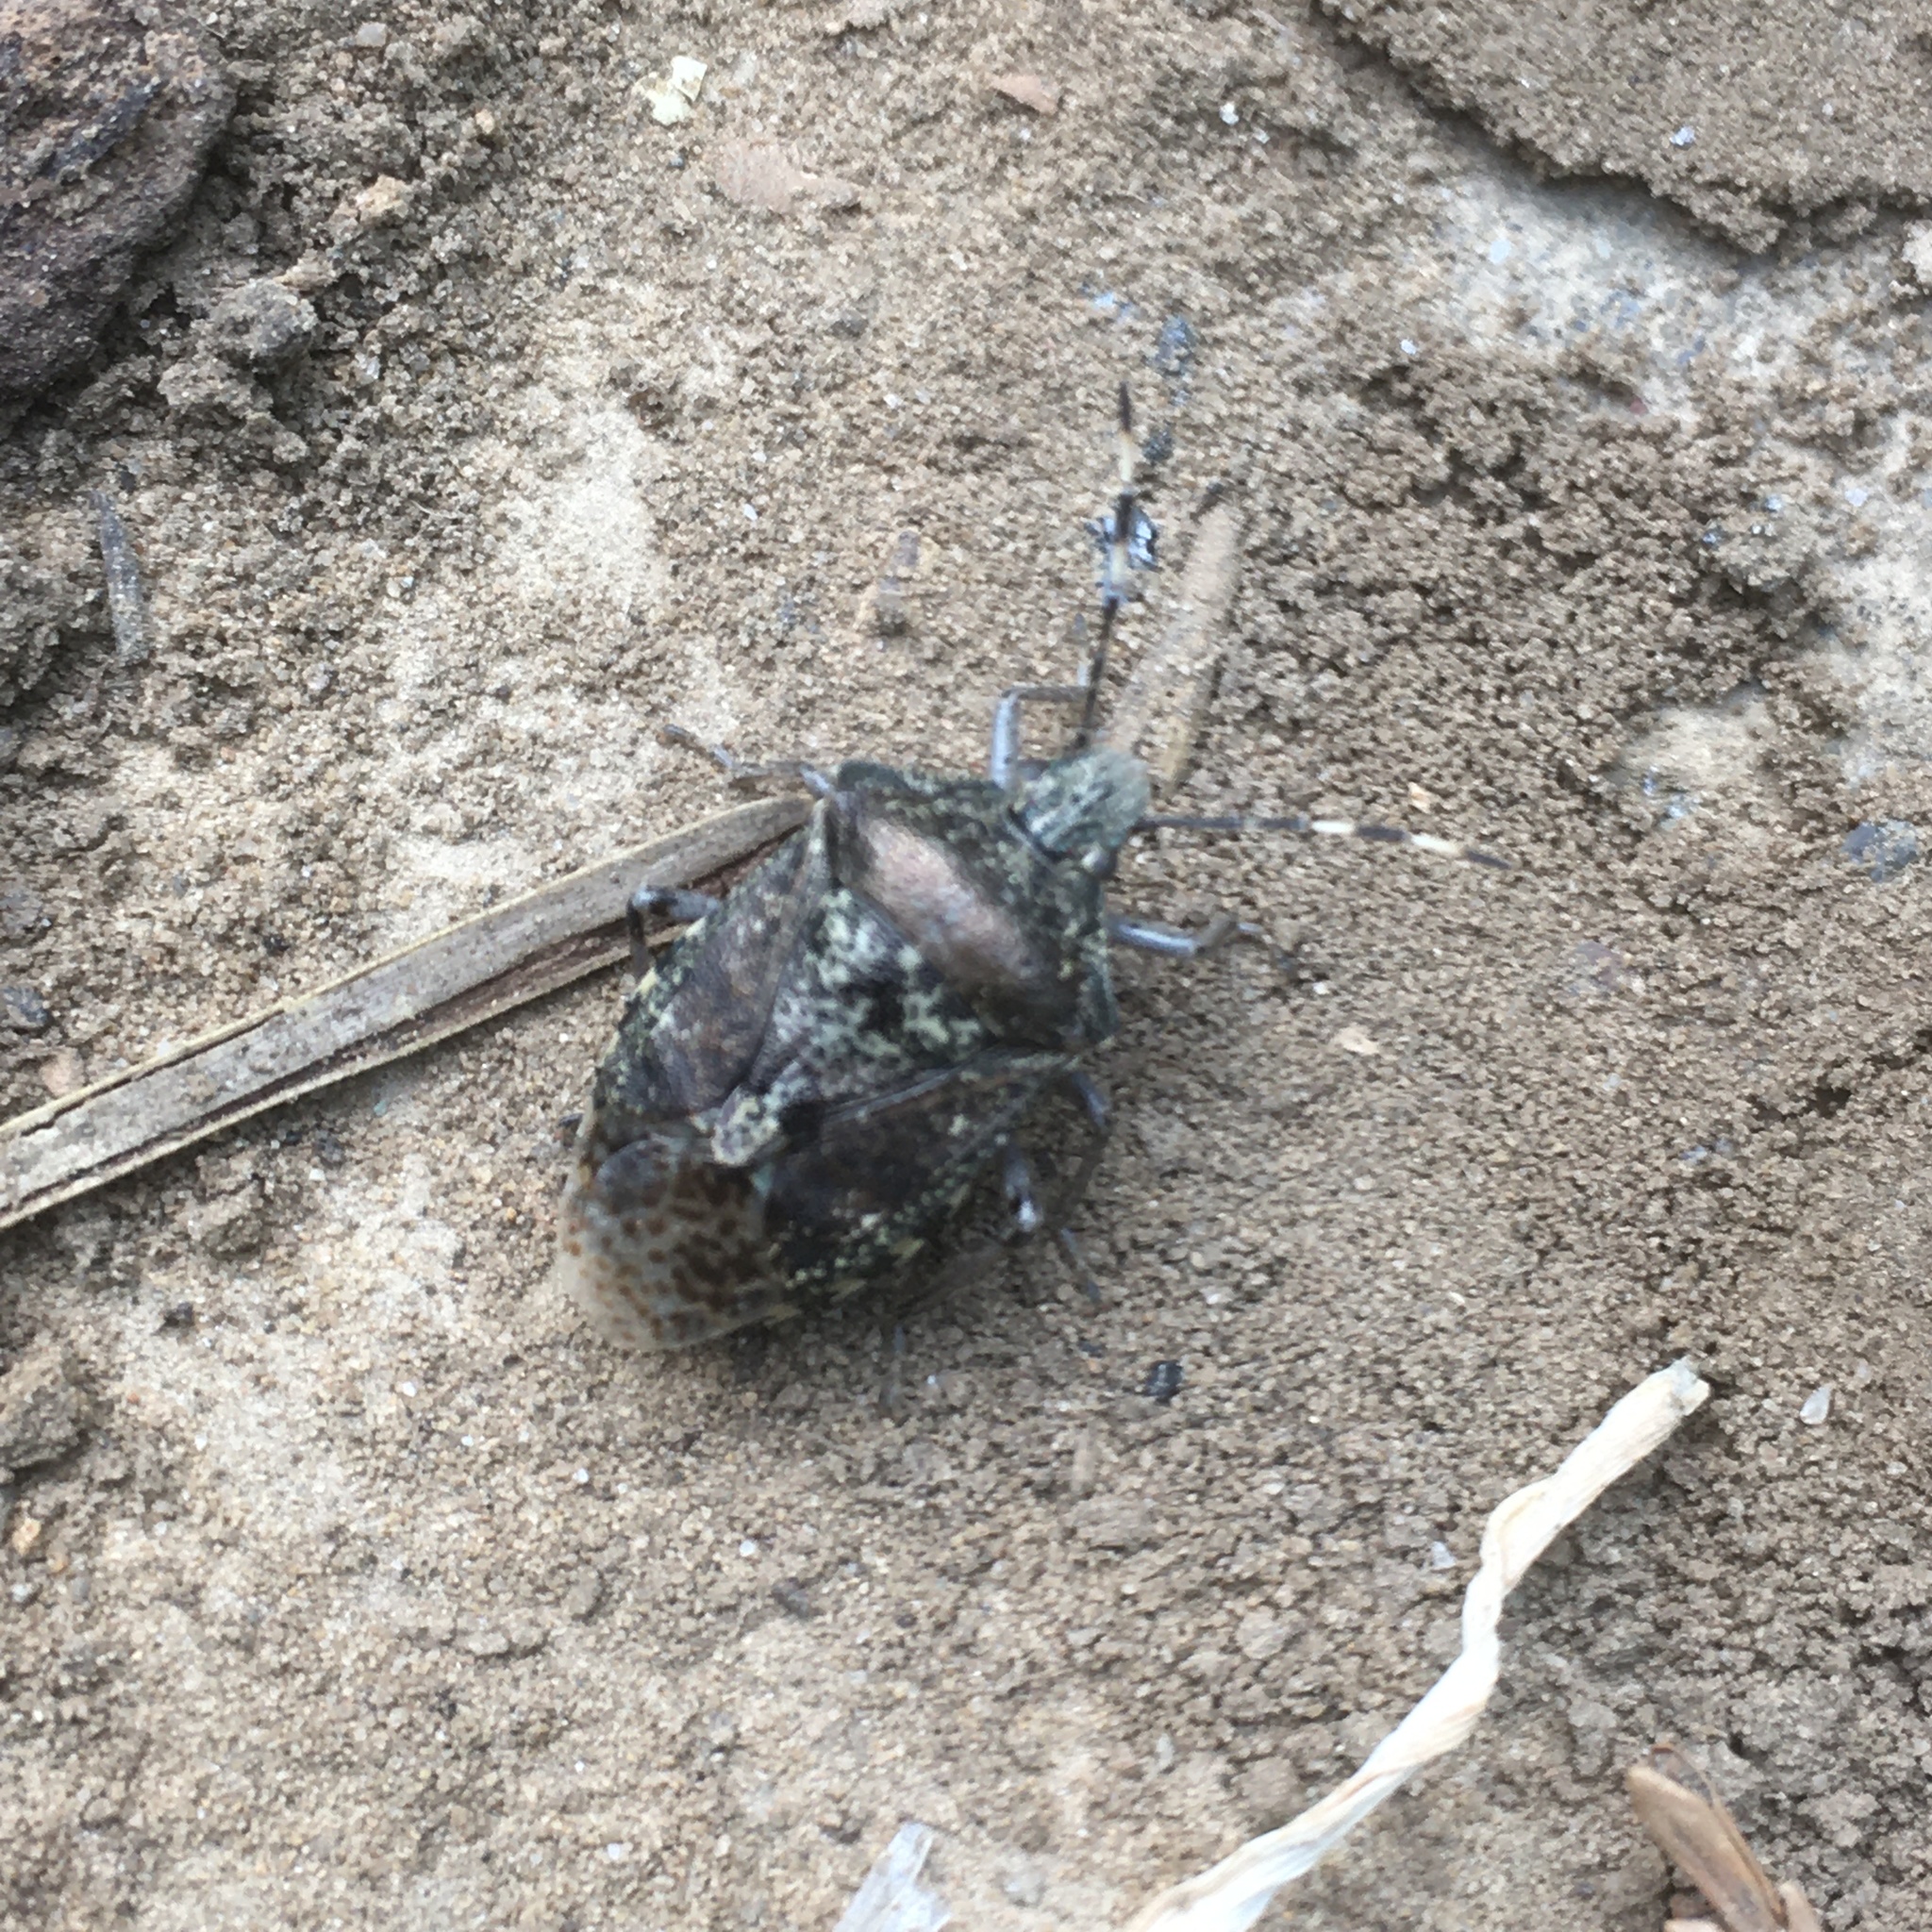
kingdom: Animalia
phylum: Arthropoda
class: Insecta
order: Hemiptera
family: Pentatomidae
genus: Rhaphigaster
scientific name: Rhaphigaster nebulosa
